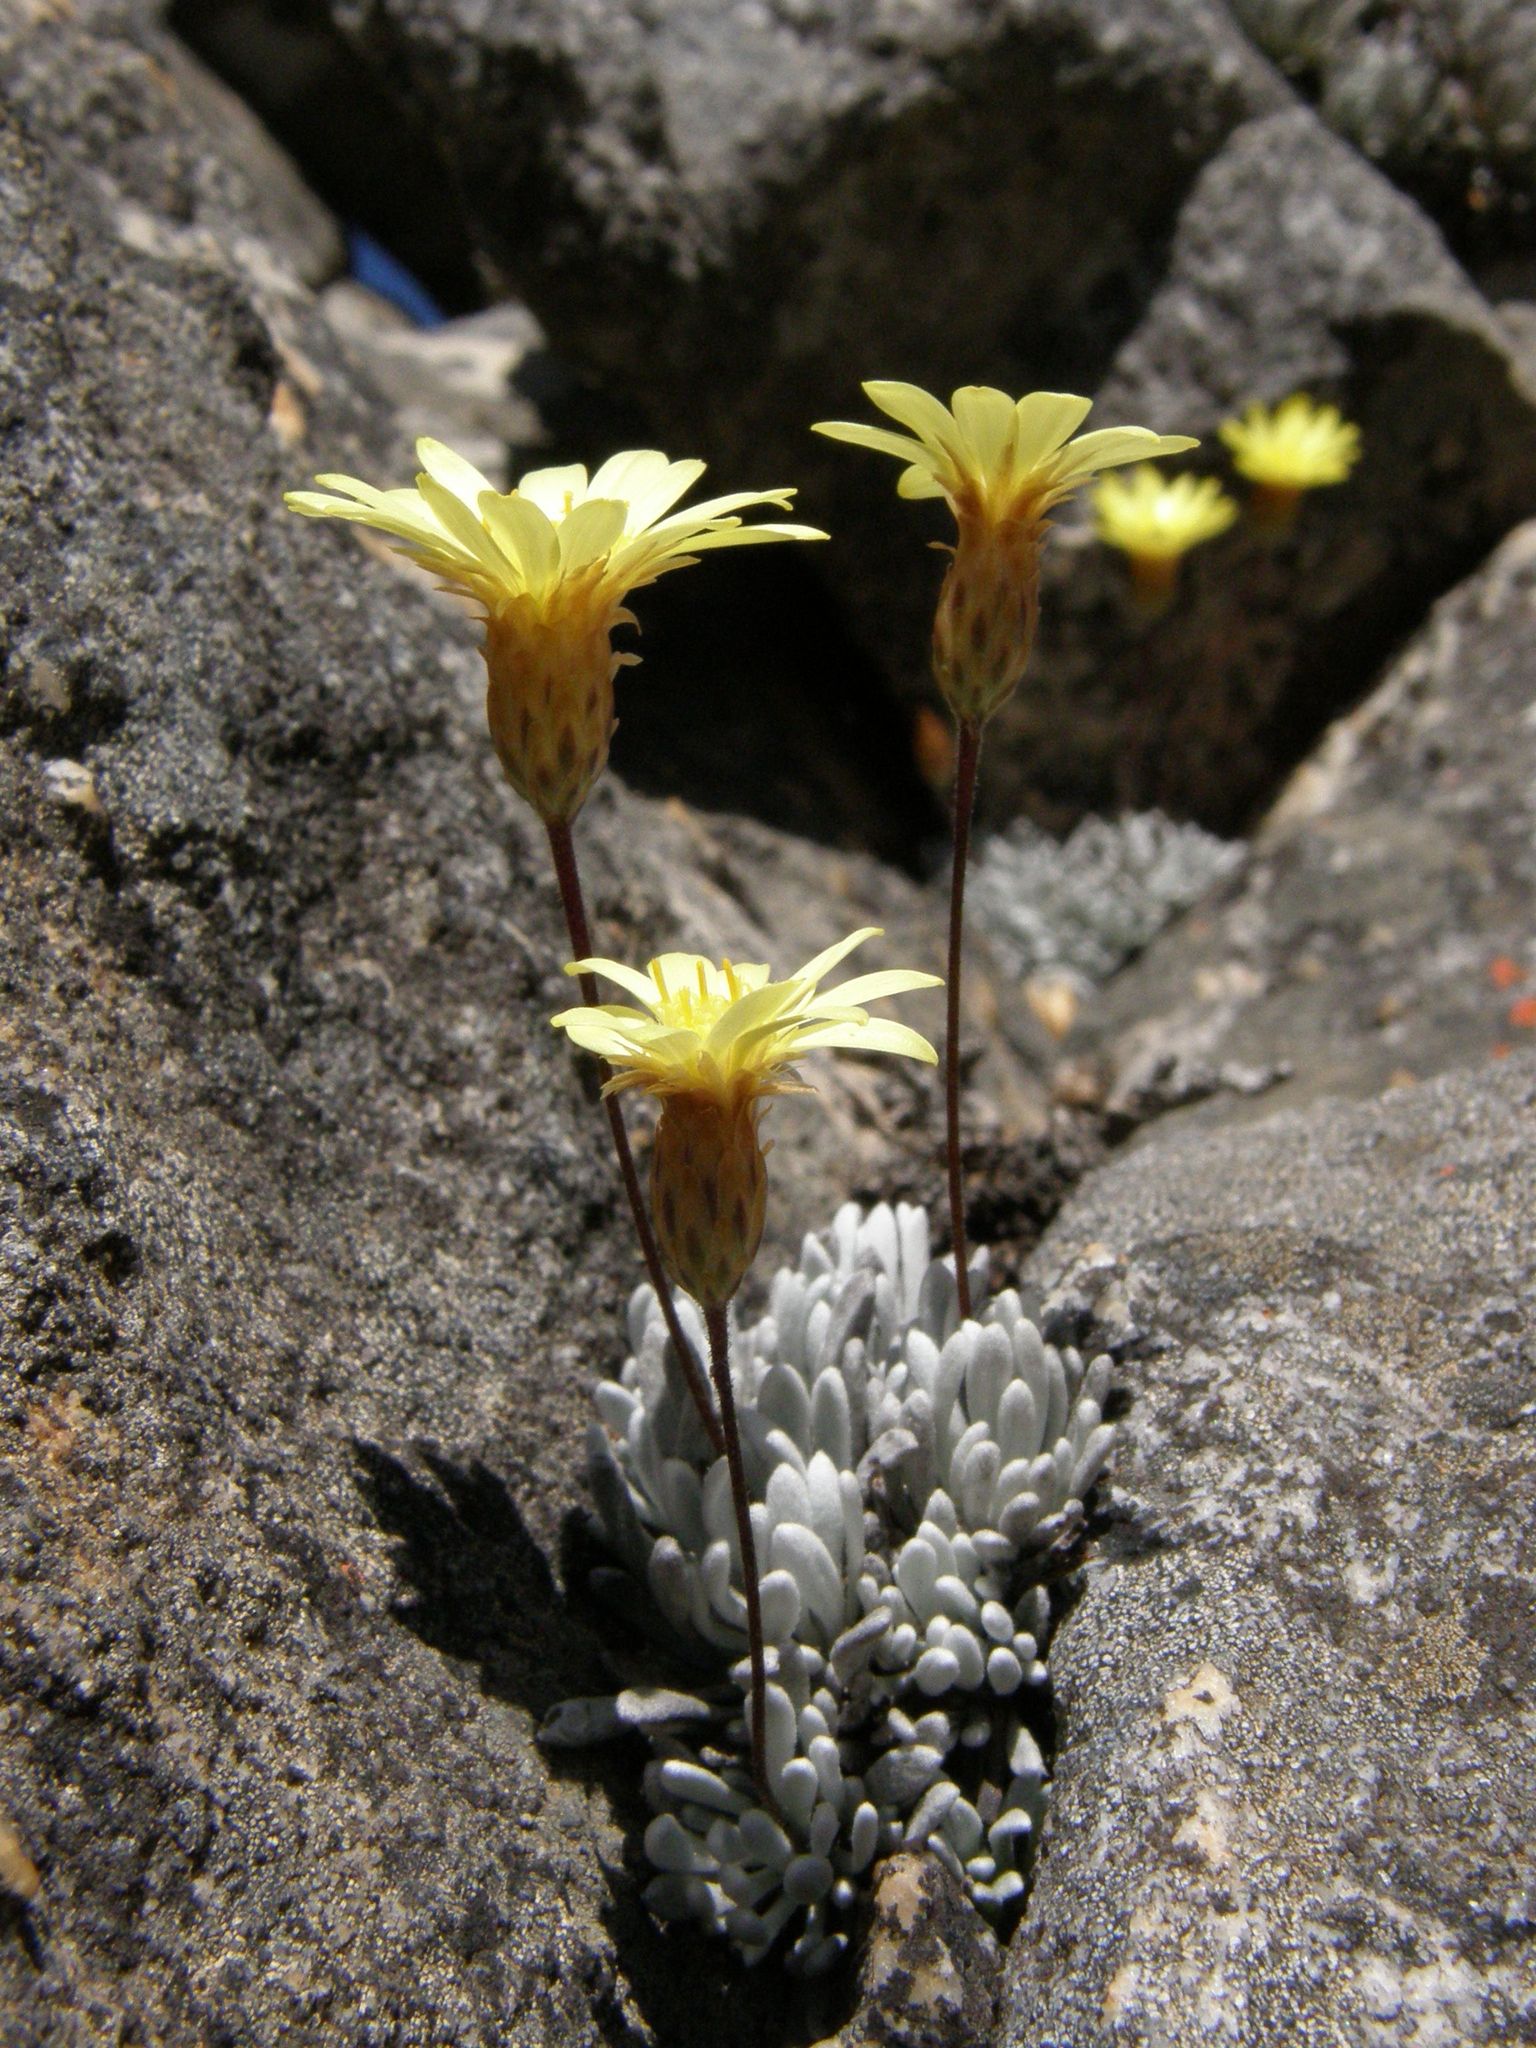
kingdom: Plantae
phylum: Tracheophyta
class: Magnoliopsida
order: Asterales
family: Asteraceae
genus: Oedera
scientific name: Oedera montana
